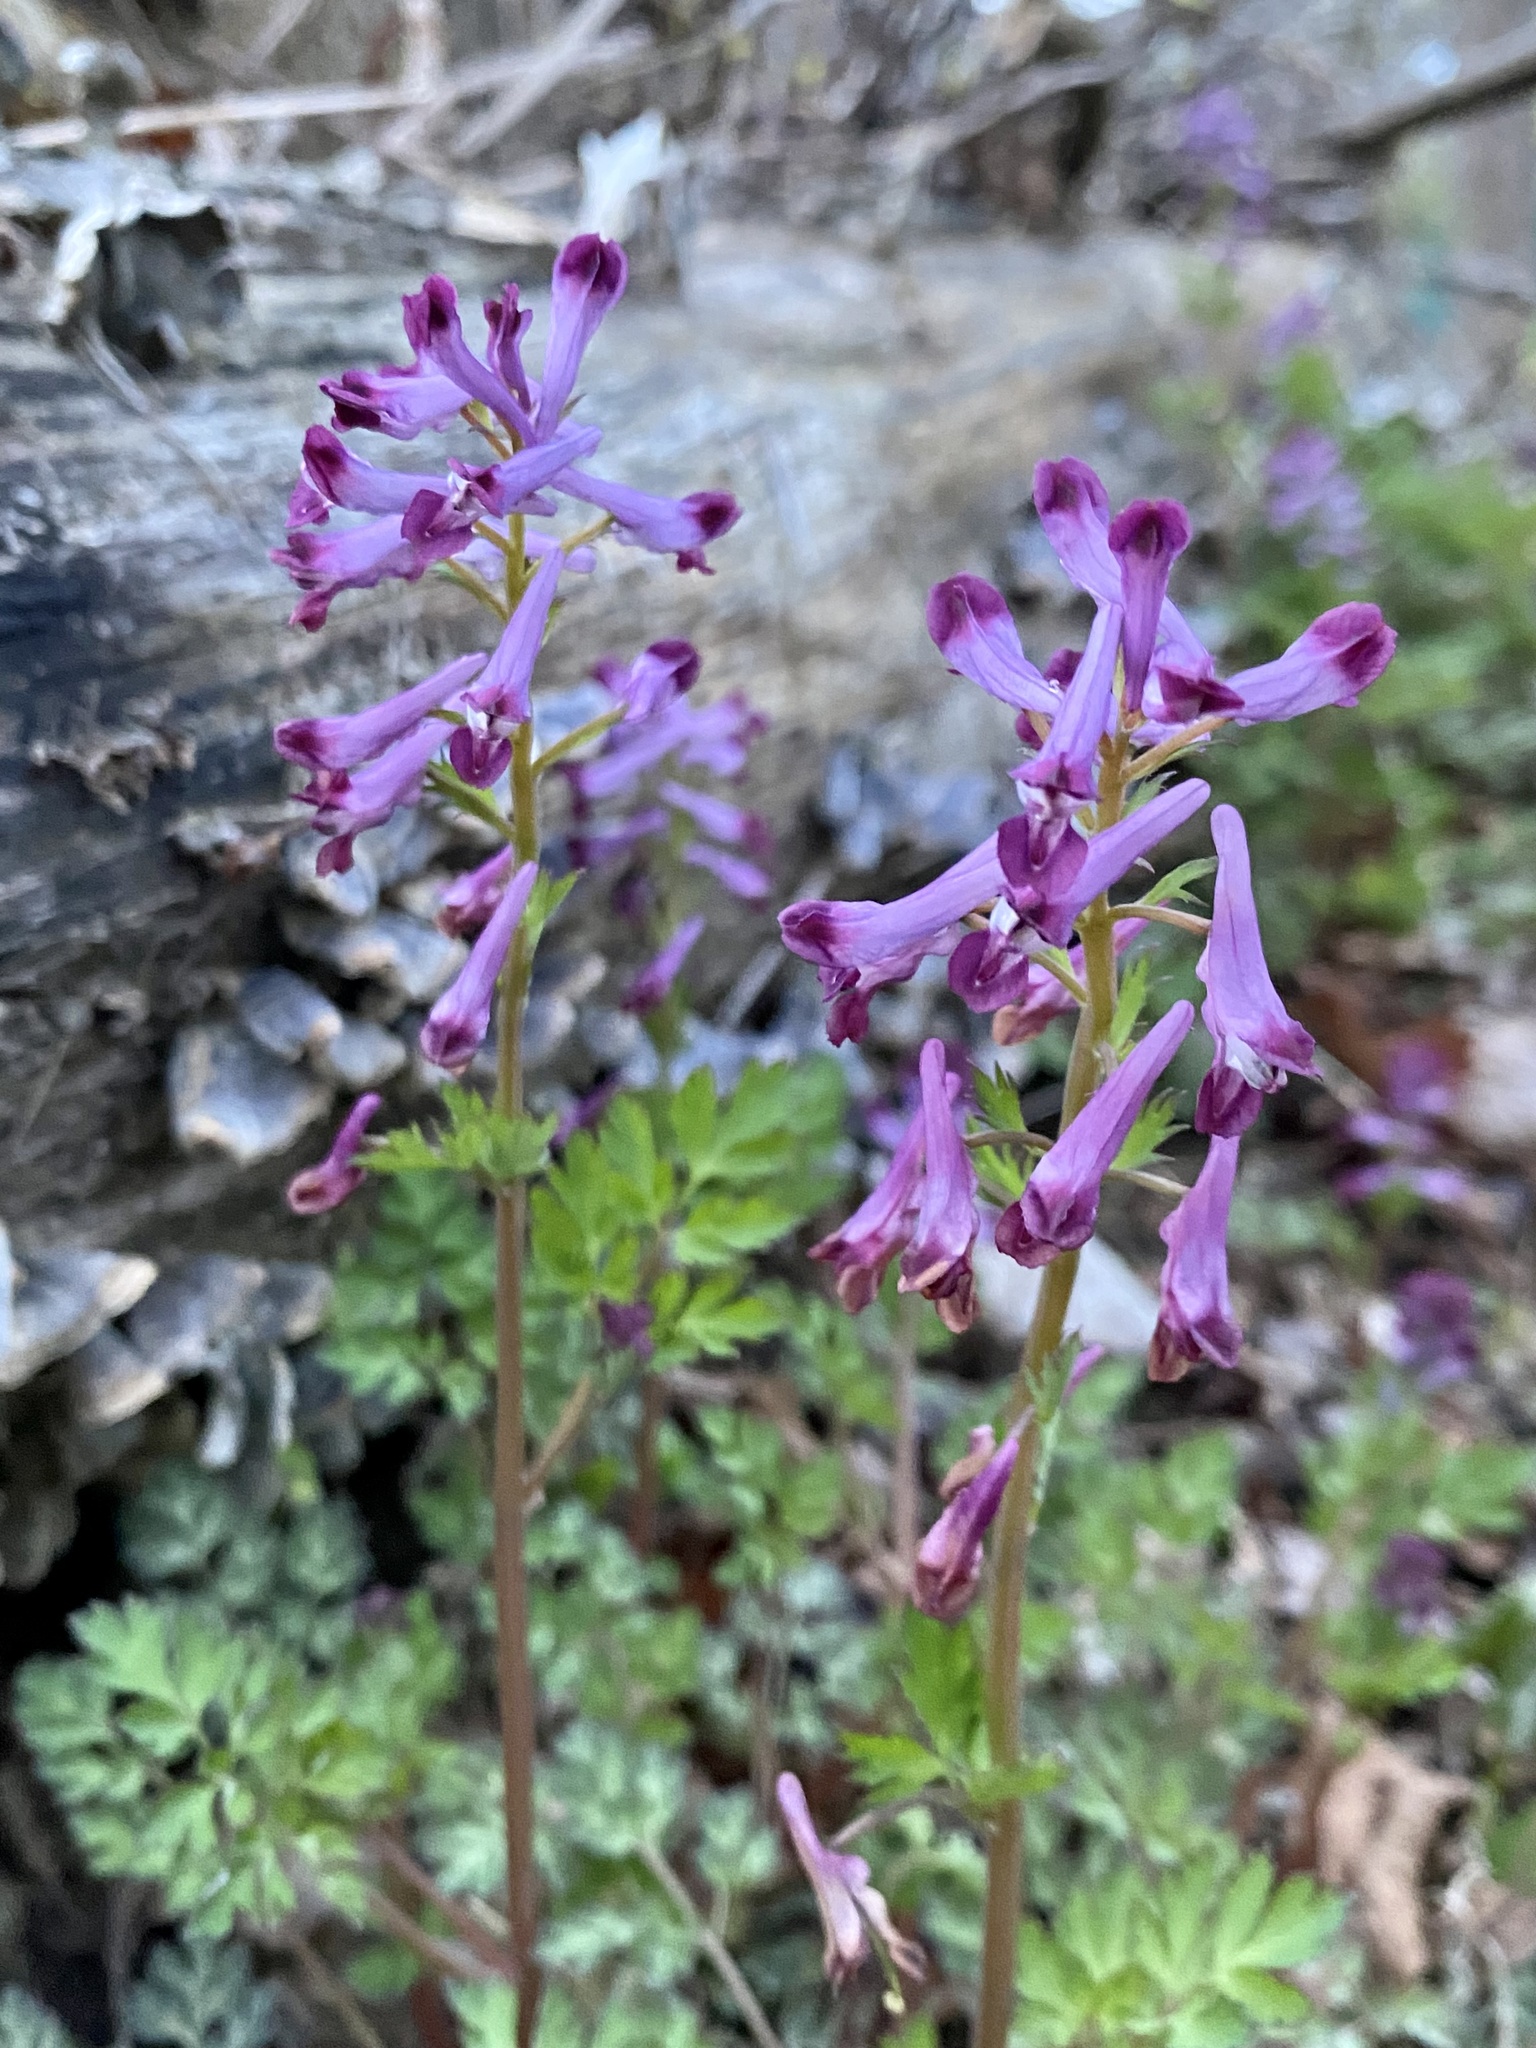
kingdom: Plantae
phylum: Tracheophyta
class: Magnoliopsida
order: Ranunculales
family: Papaveraceae
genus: Corydalis
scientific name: Corydalis incisa
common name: Incised fumewort
